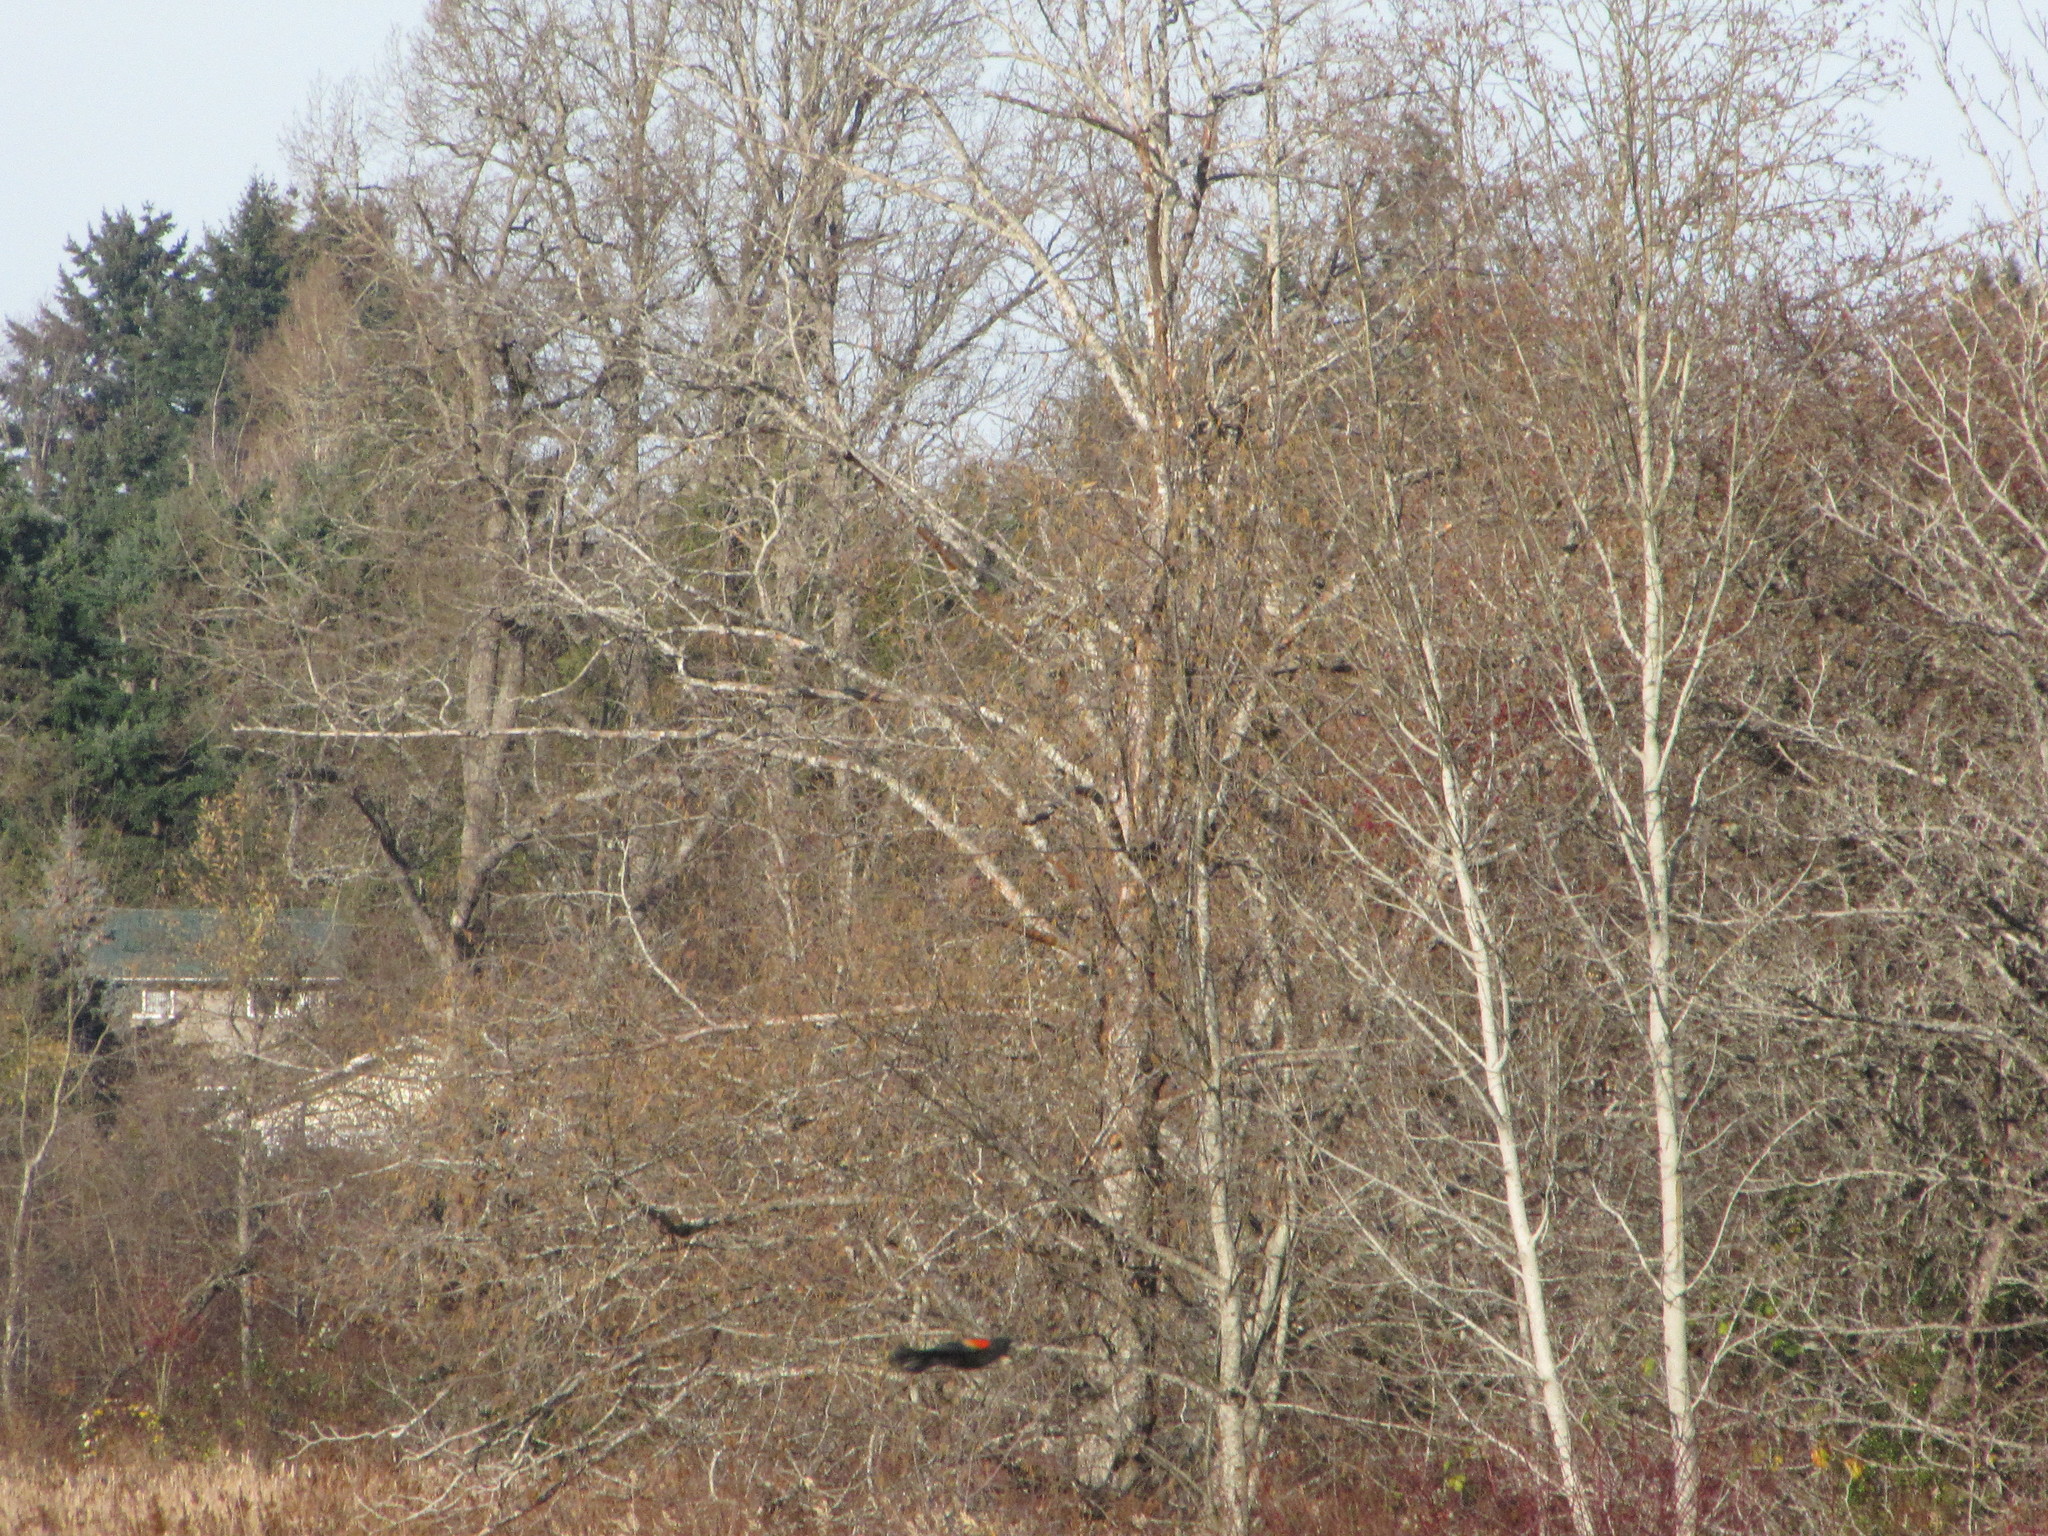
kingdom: Animalia
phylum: Chordata
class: Aves
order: Passeriformes
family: Icteridae
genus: Agelaius
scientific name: Agelaius phoeniceus
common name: Red-winged blackbird
